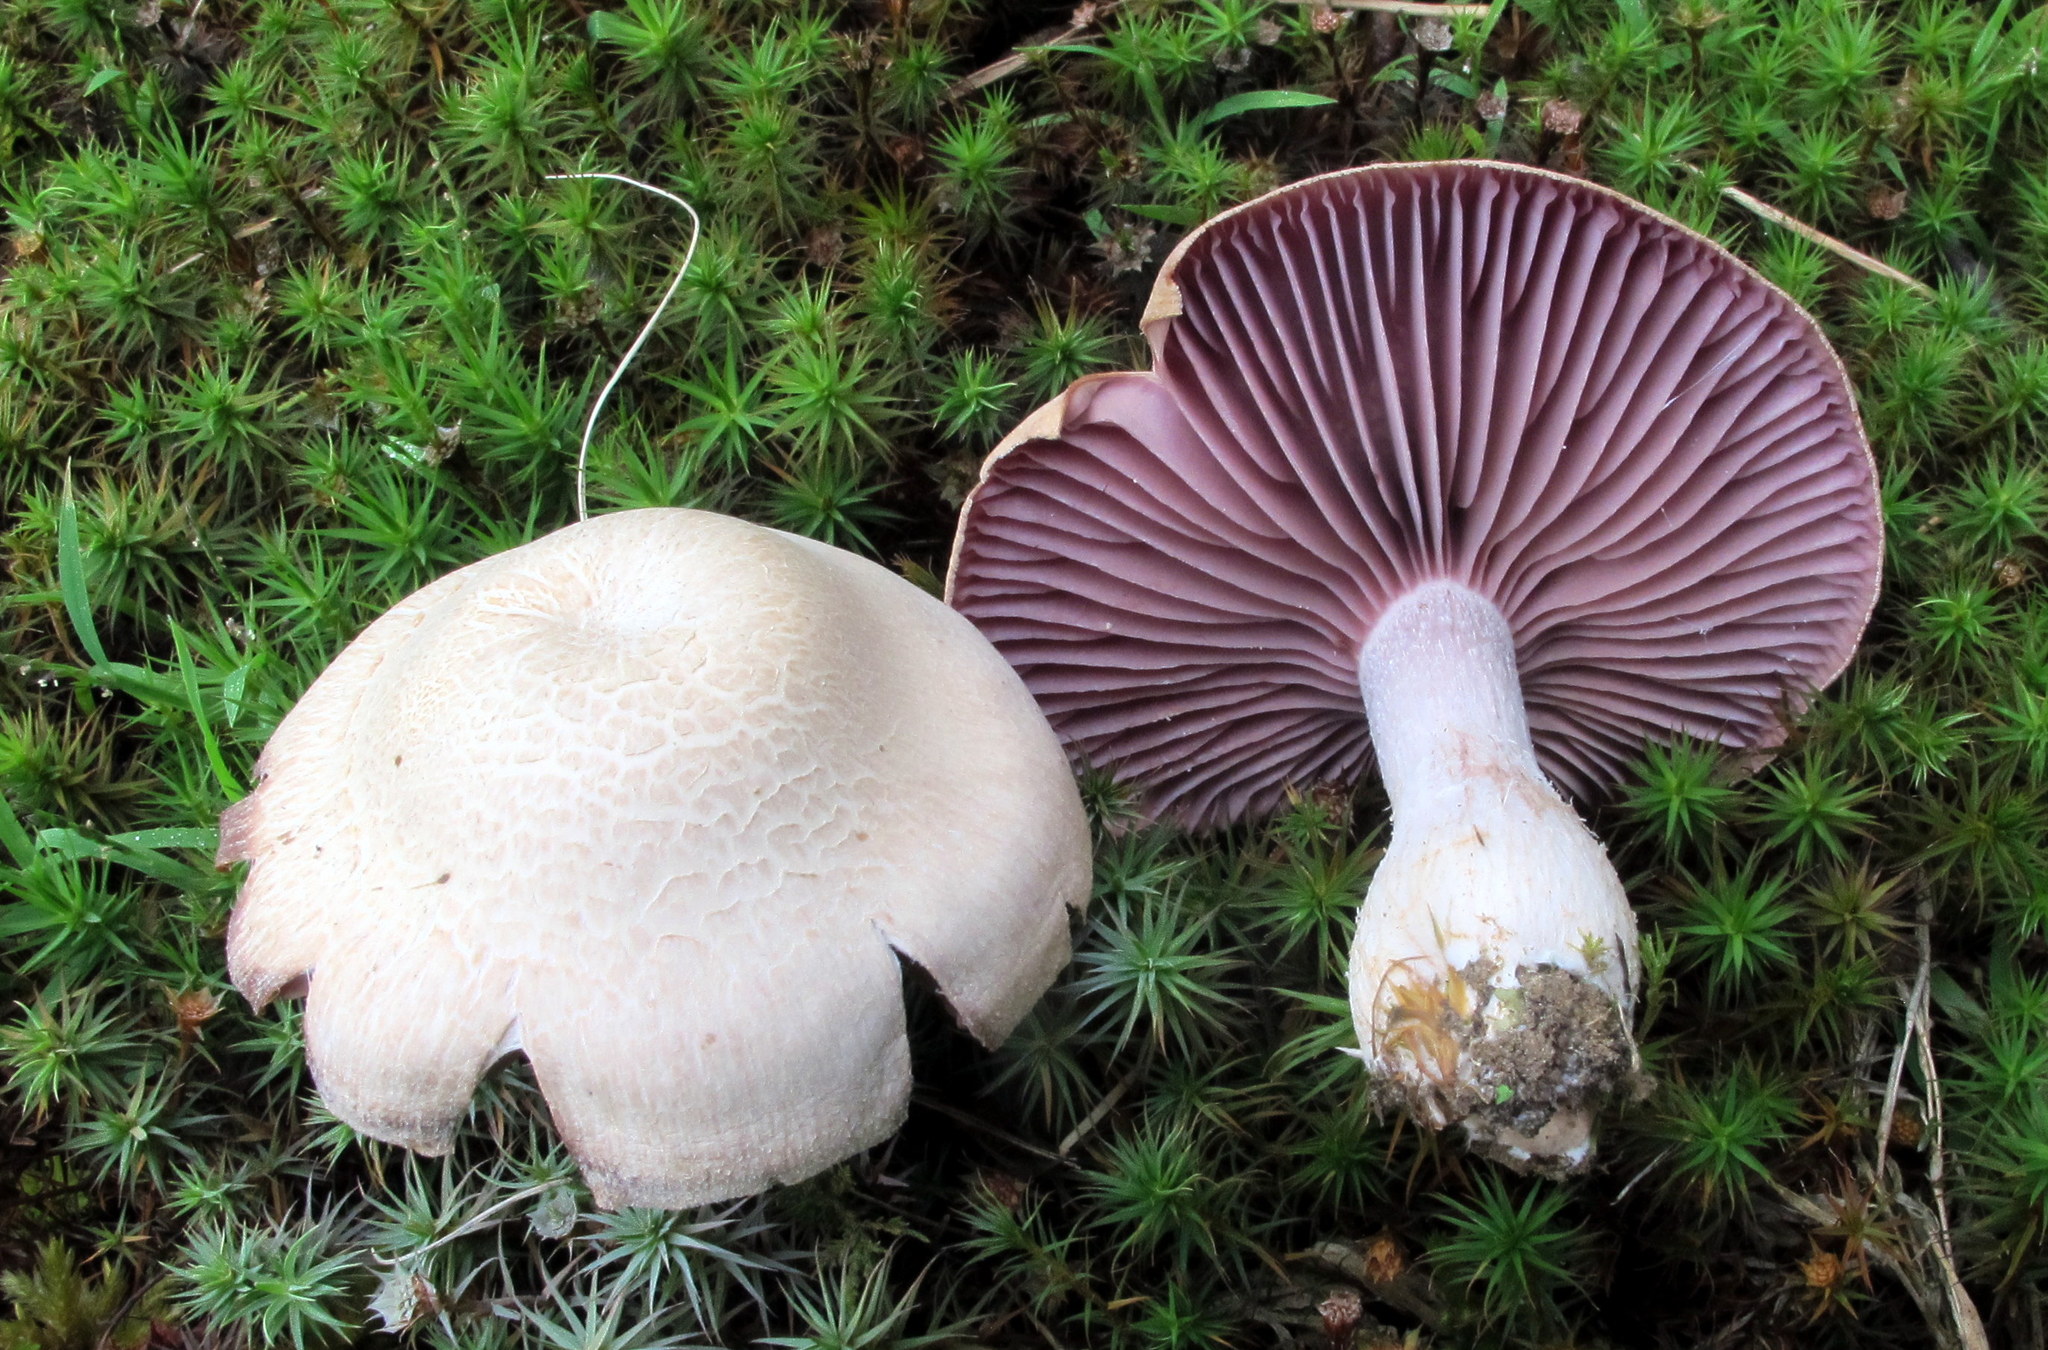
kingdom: Fungi
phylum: Basidiomycota
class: Agaricomycetes
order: Agaricales
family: Hydnangiaceae
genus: Laccaria
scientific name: Laccaria ochropurpurea
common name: Purple laccaria
